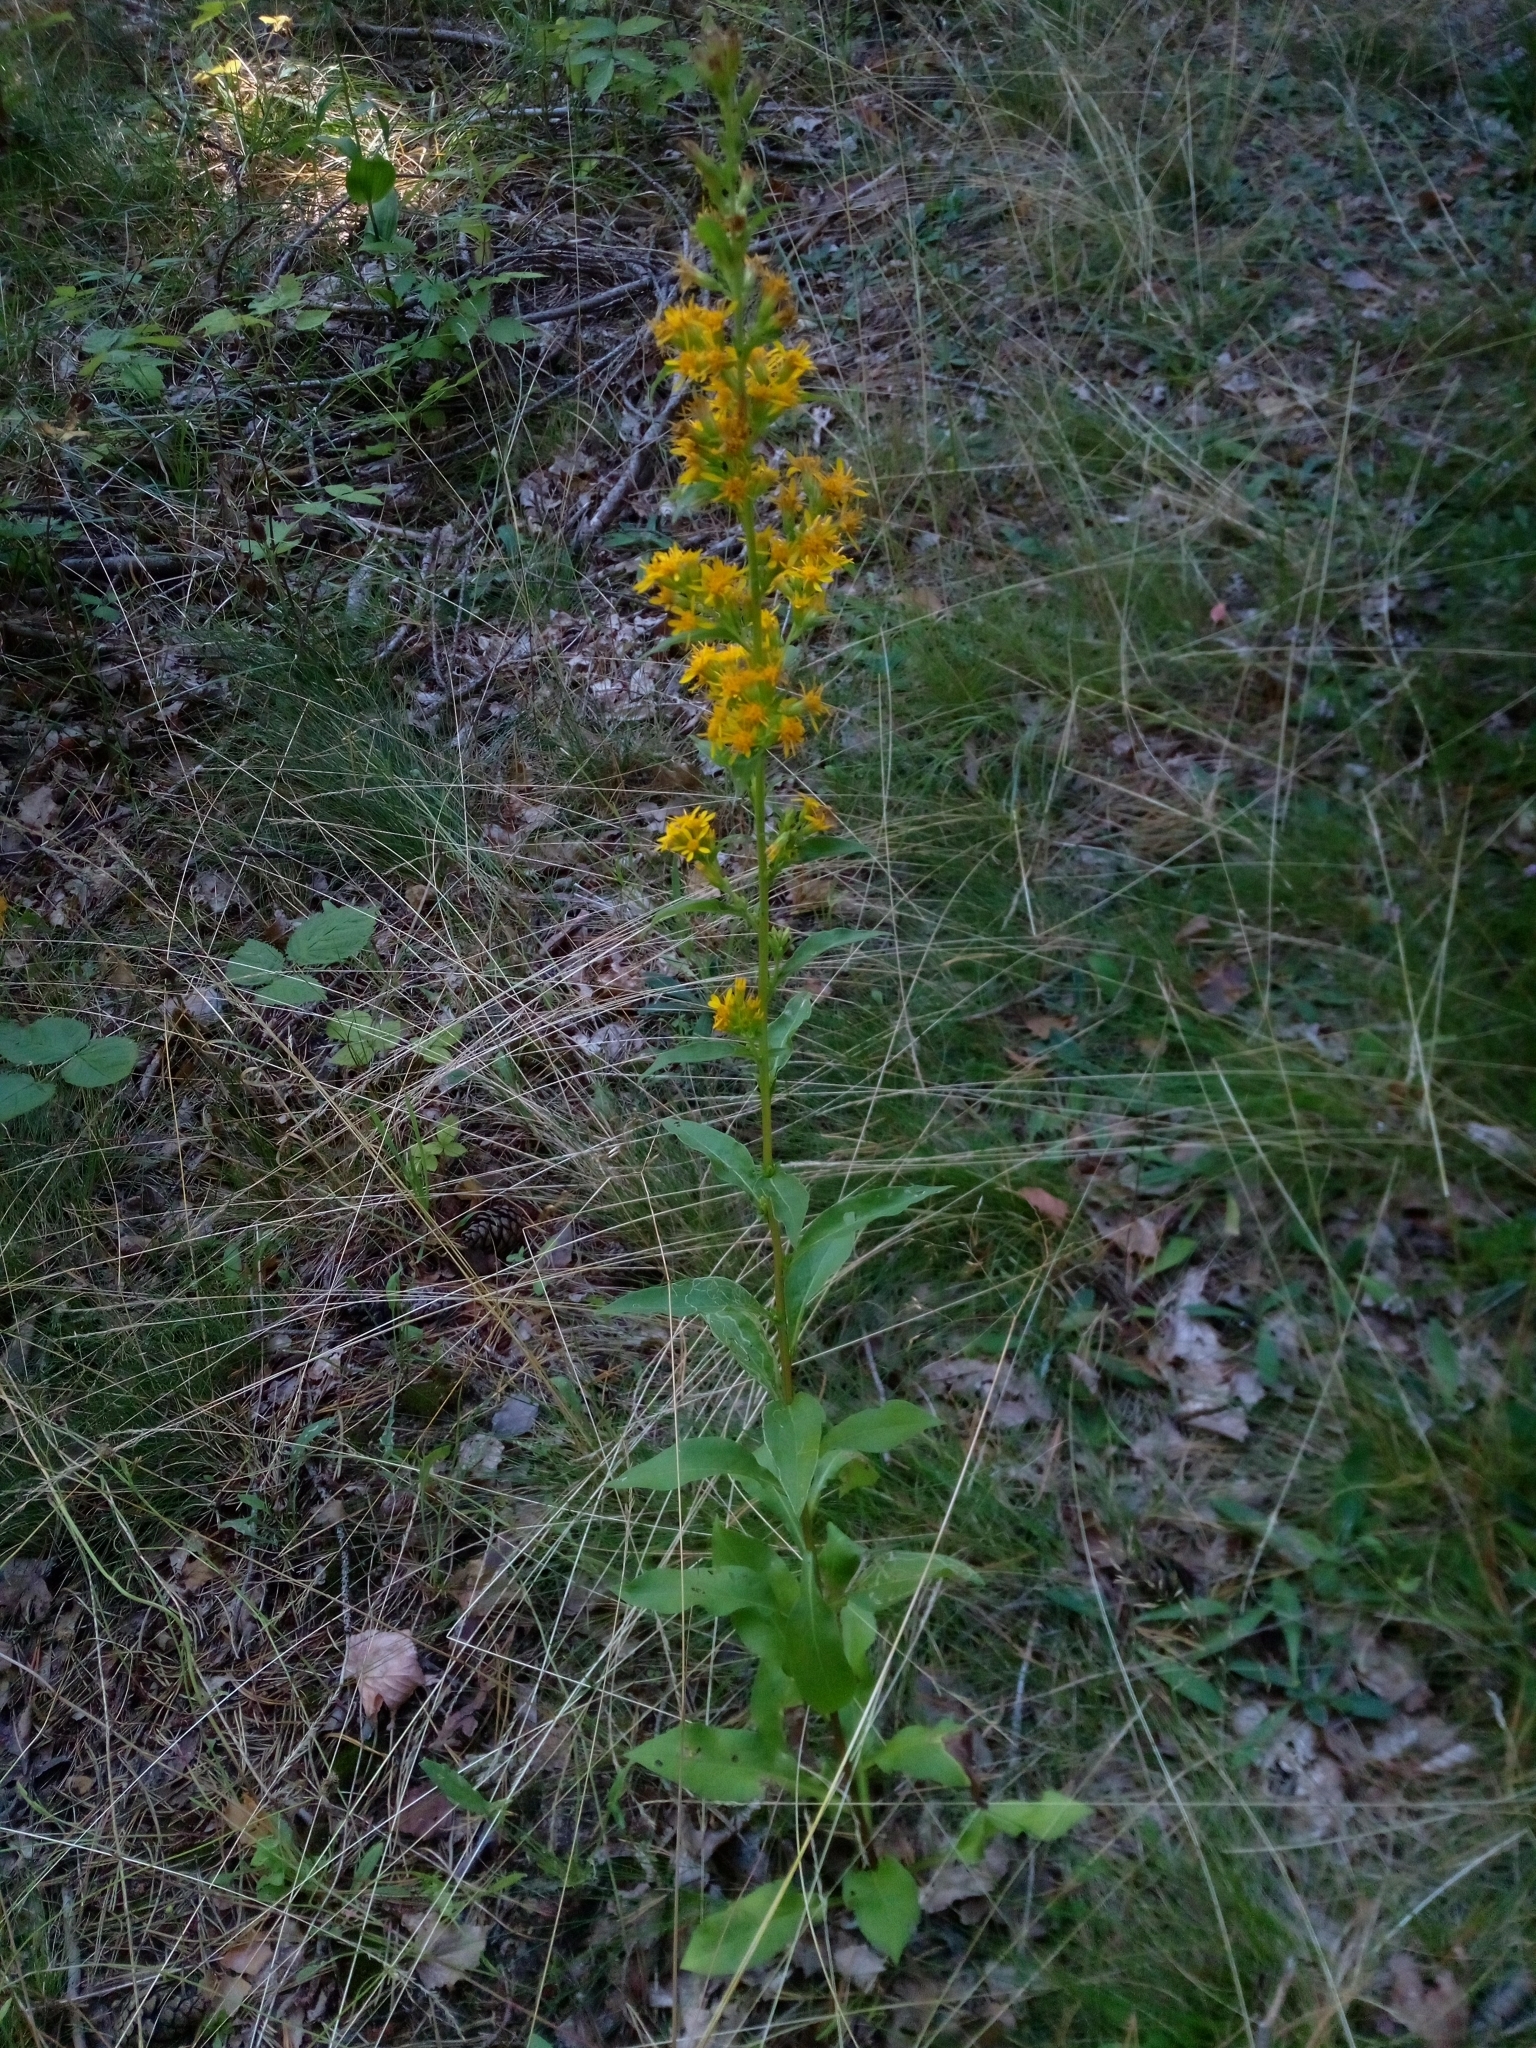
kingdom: Plantae
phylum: Tracheophyta
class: Magnoliopsida
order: Asterales
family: Asteraceae
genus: Solidago
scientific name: Solidago virgaurea
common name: Goldenrod
